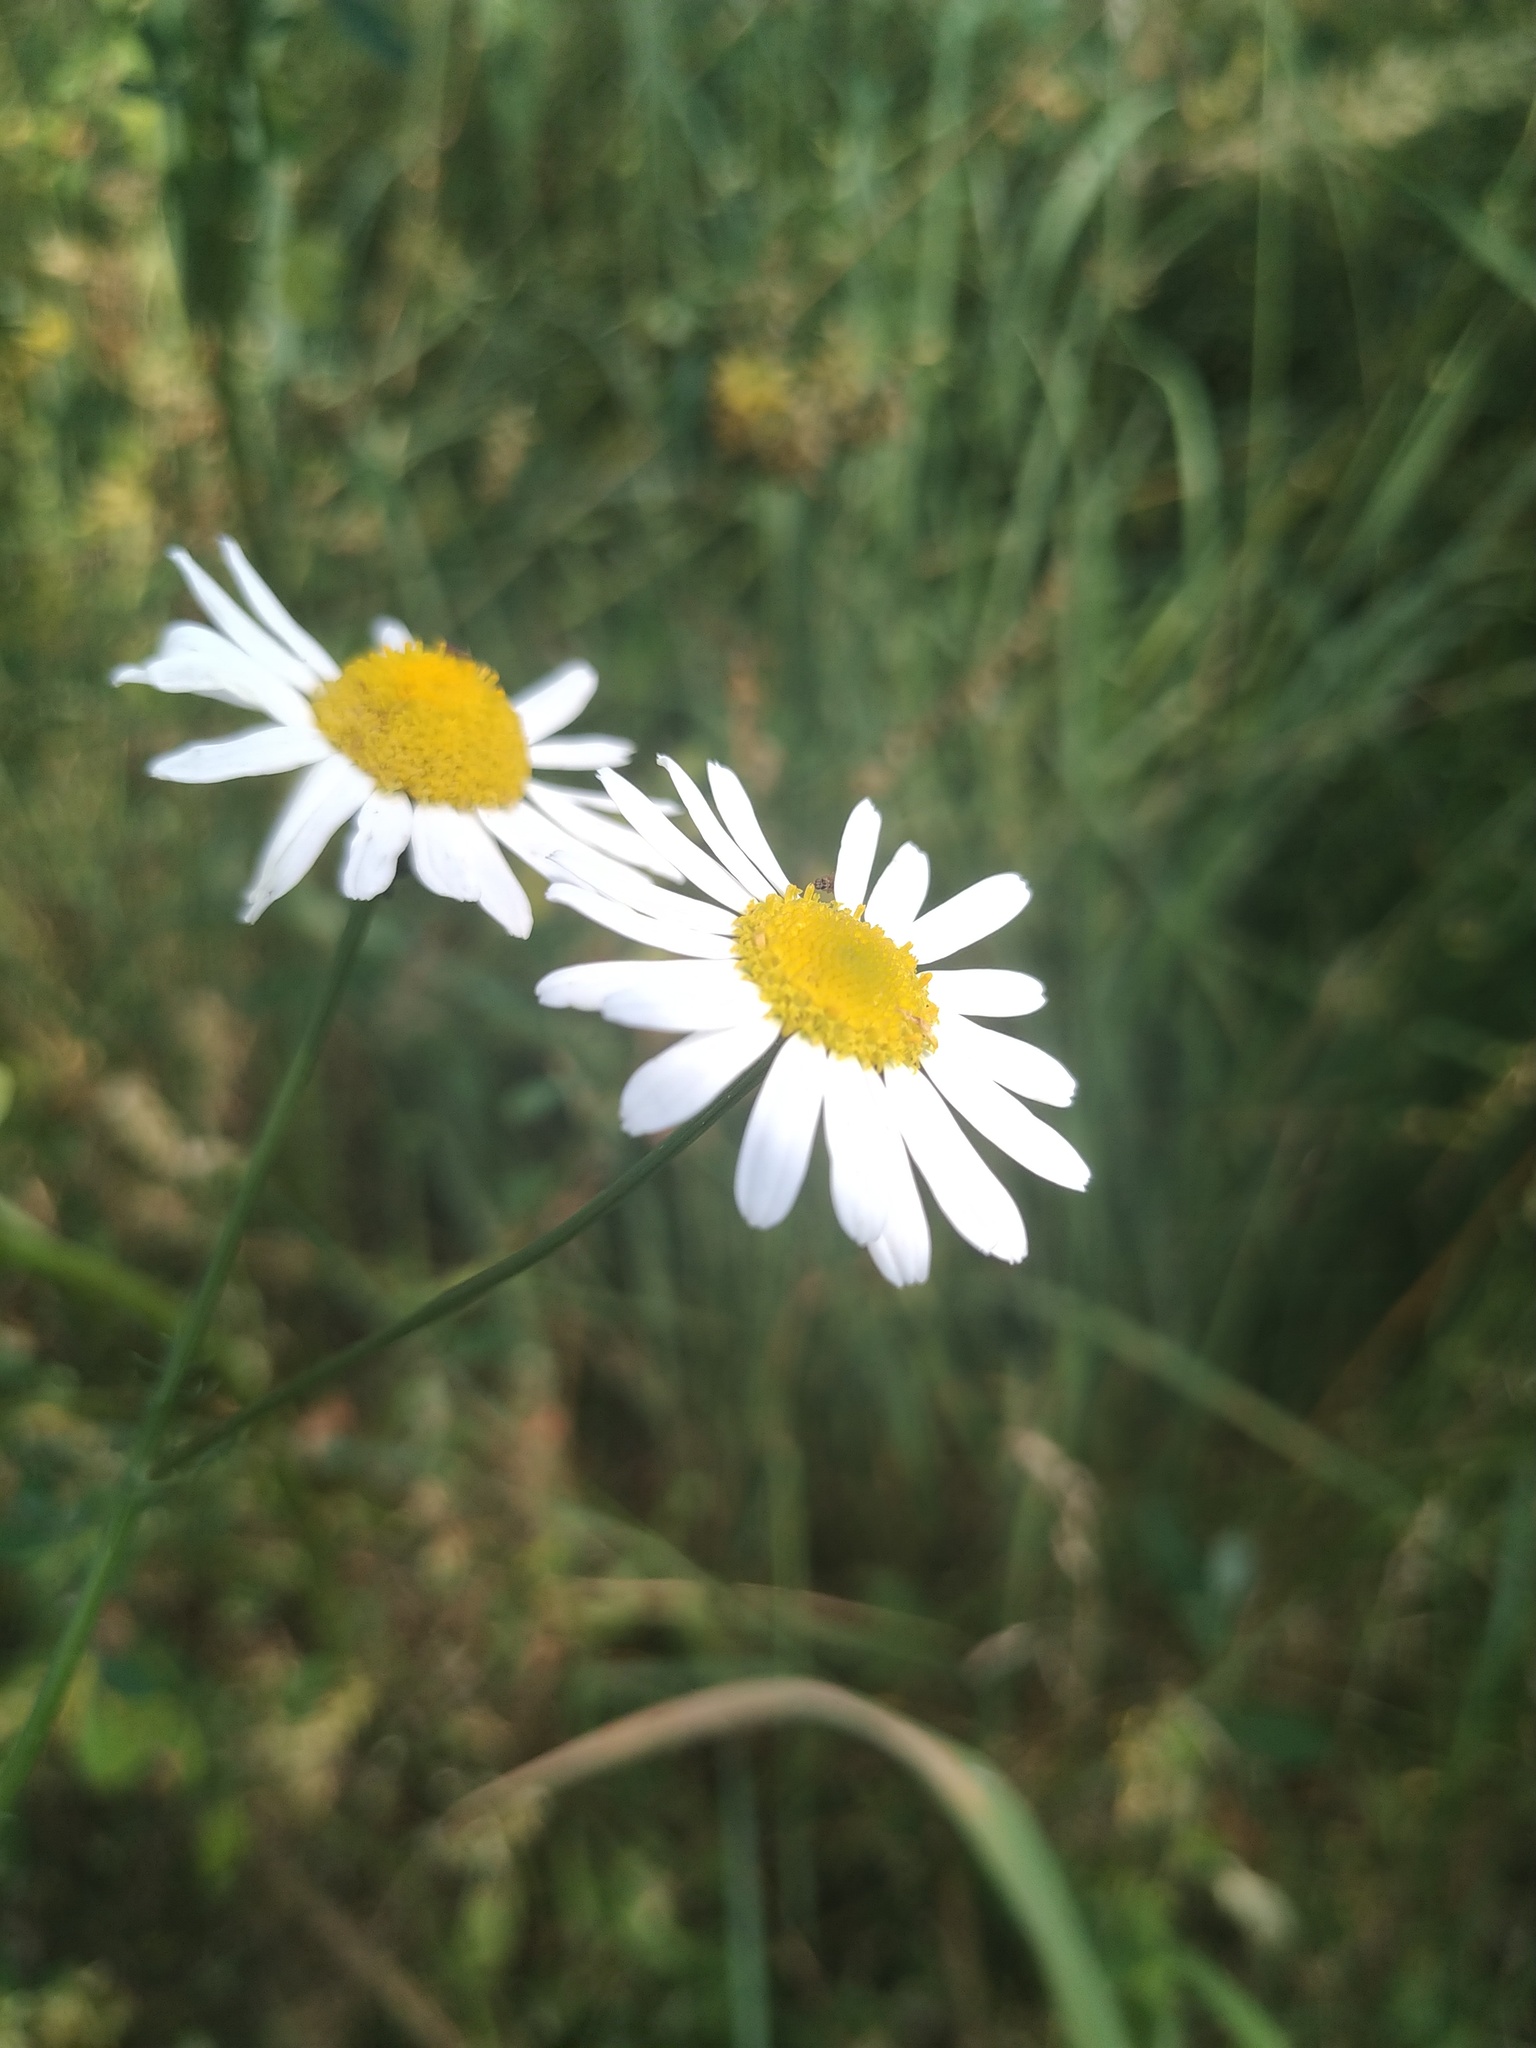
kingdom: Plantae
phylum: Tracheophyta
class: Magnoliopsida
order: Asterales
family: Asteraceae
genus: Tripleurospermum
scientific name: Tripleurospermum inodorum
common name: Scentless mayweed
